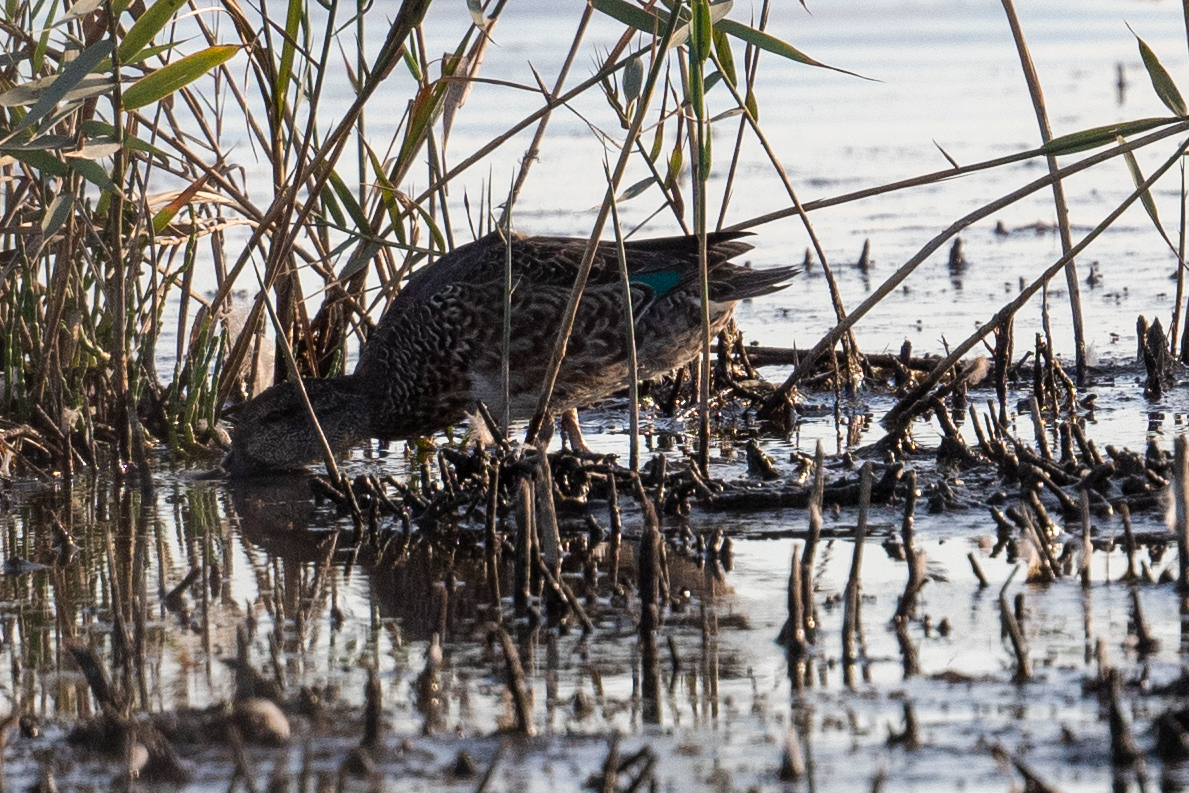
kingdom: Animalia
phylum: Chordata
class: Aves
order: Anseriformes
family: Anatidae
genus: Anas
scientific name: Anas crecca
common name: Eurasian teal
